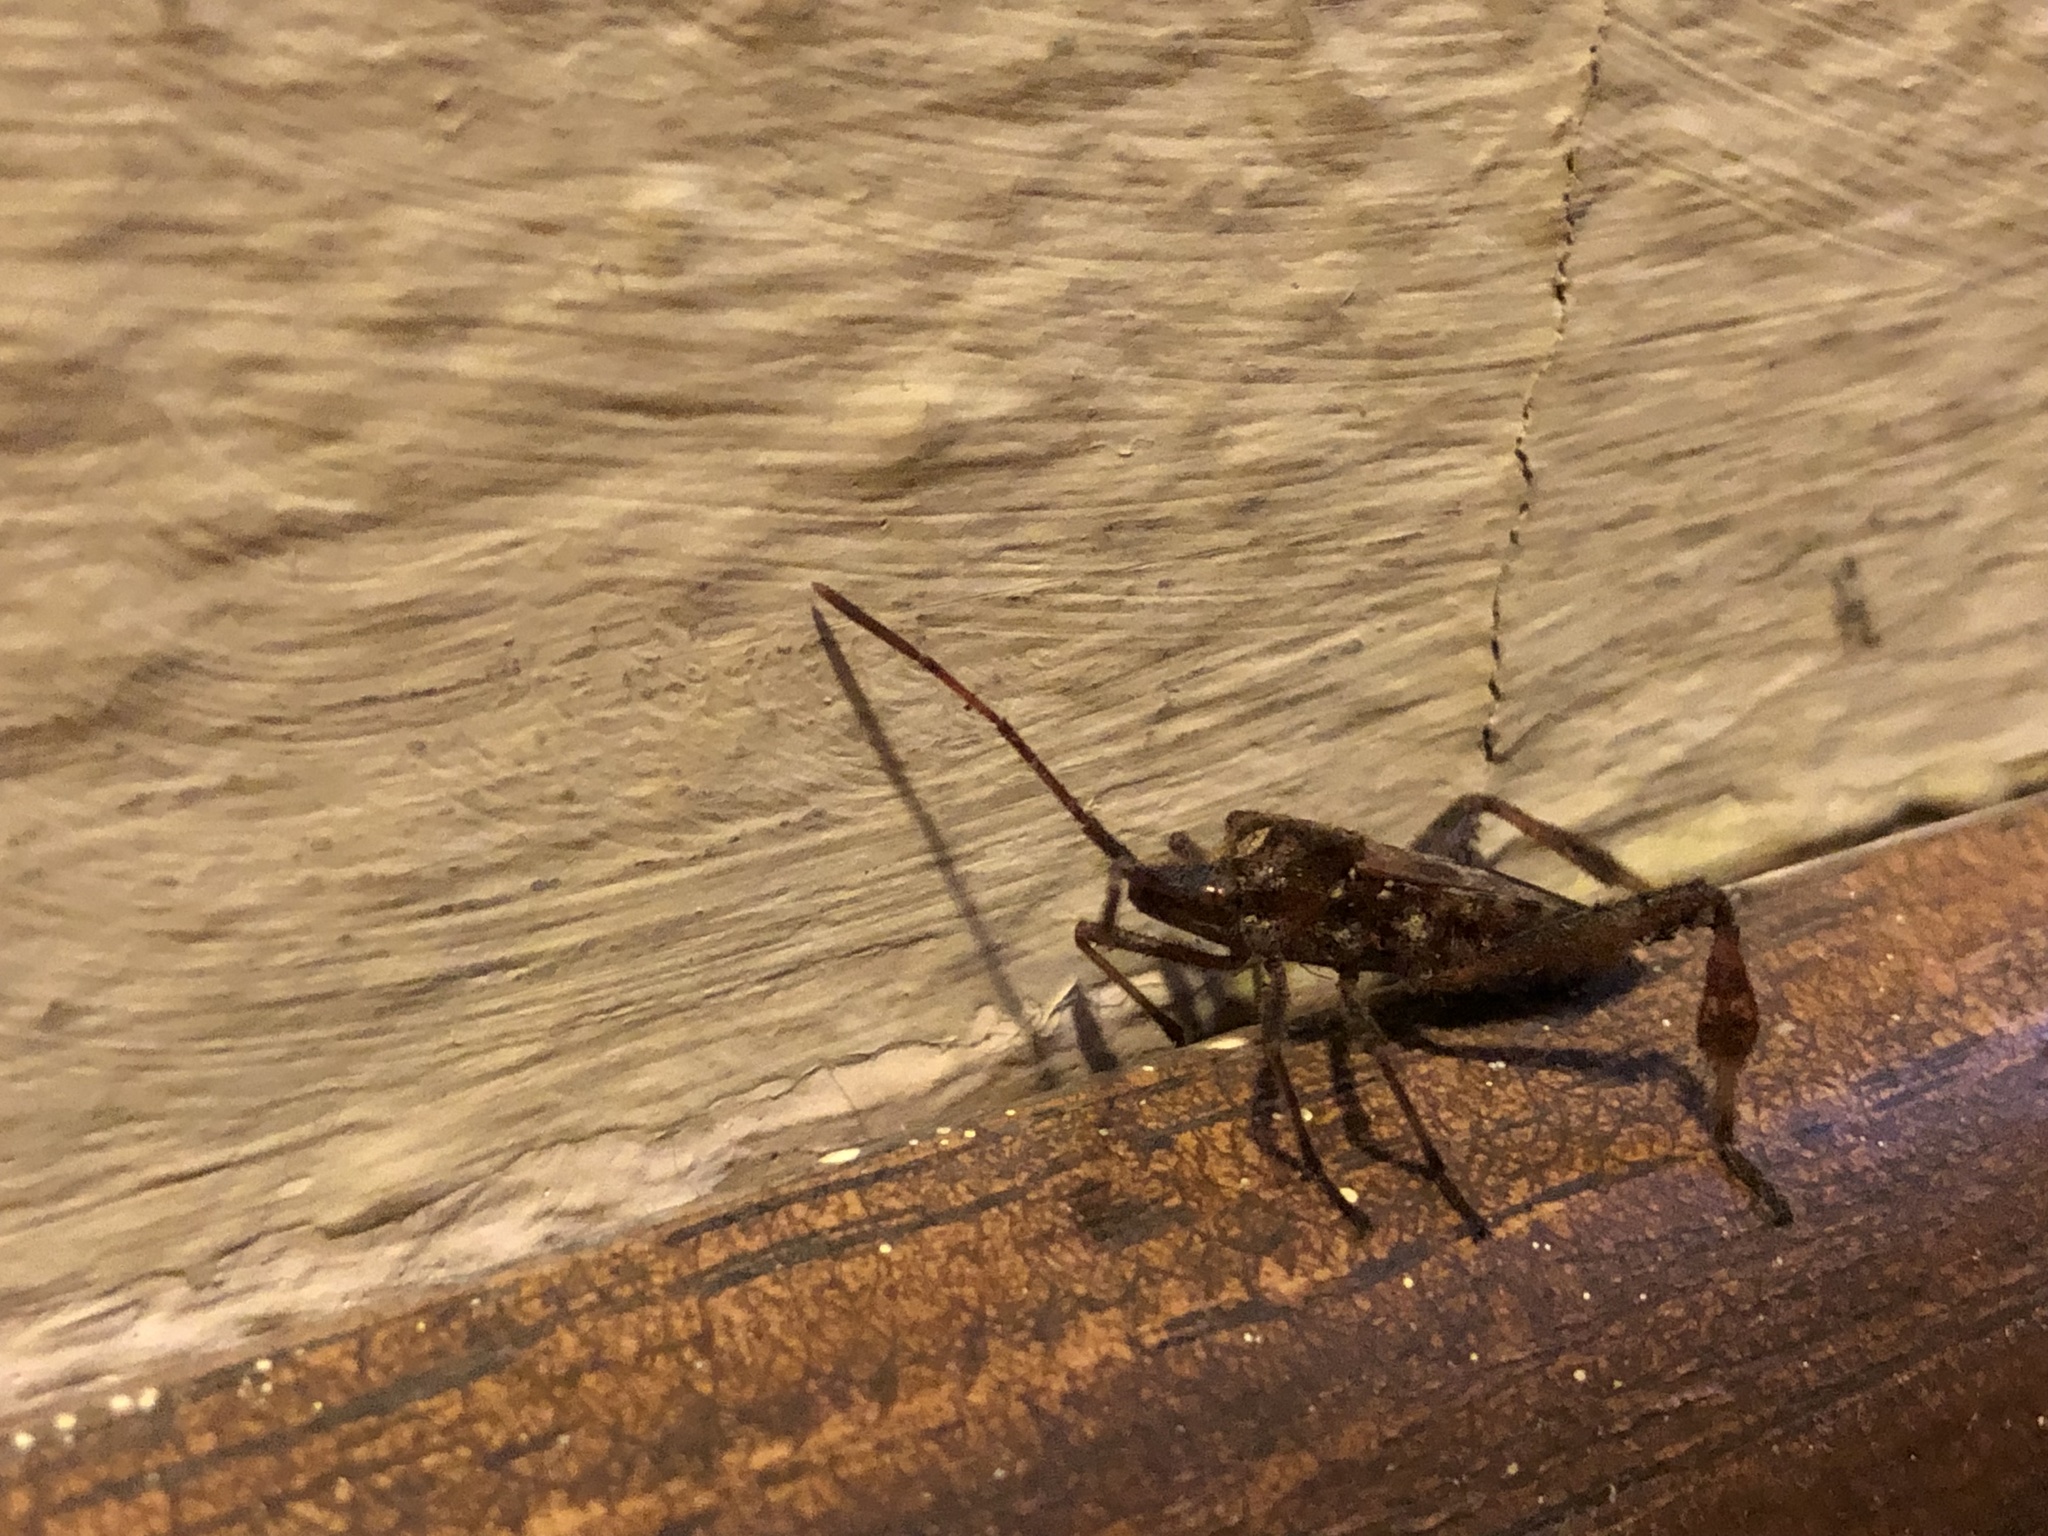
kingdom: Animalia
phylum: Arthropoda
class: Insecta
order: Hemiptera
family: Coreidae
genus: Leptoglossus
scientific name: Leptoglossus occidentalis
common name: Western conifer-seed bug
